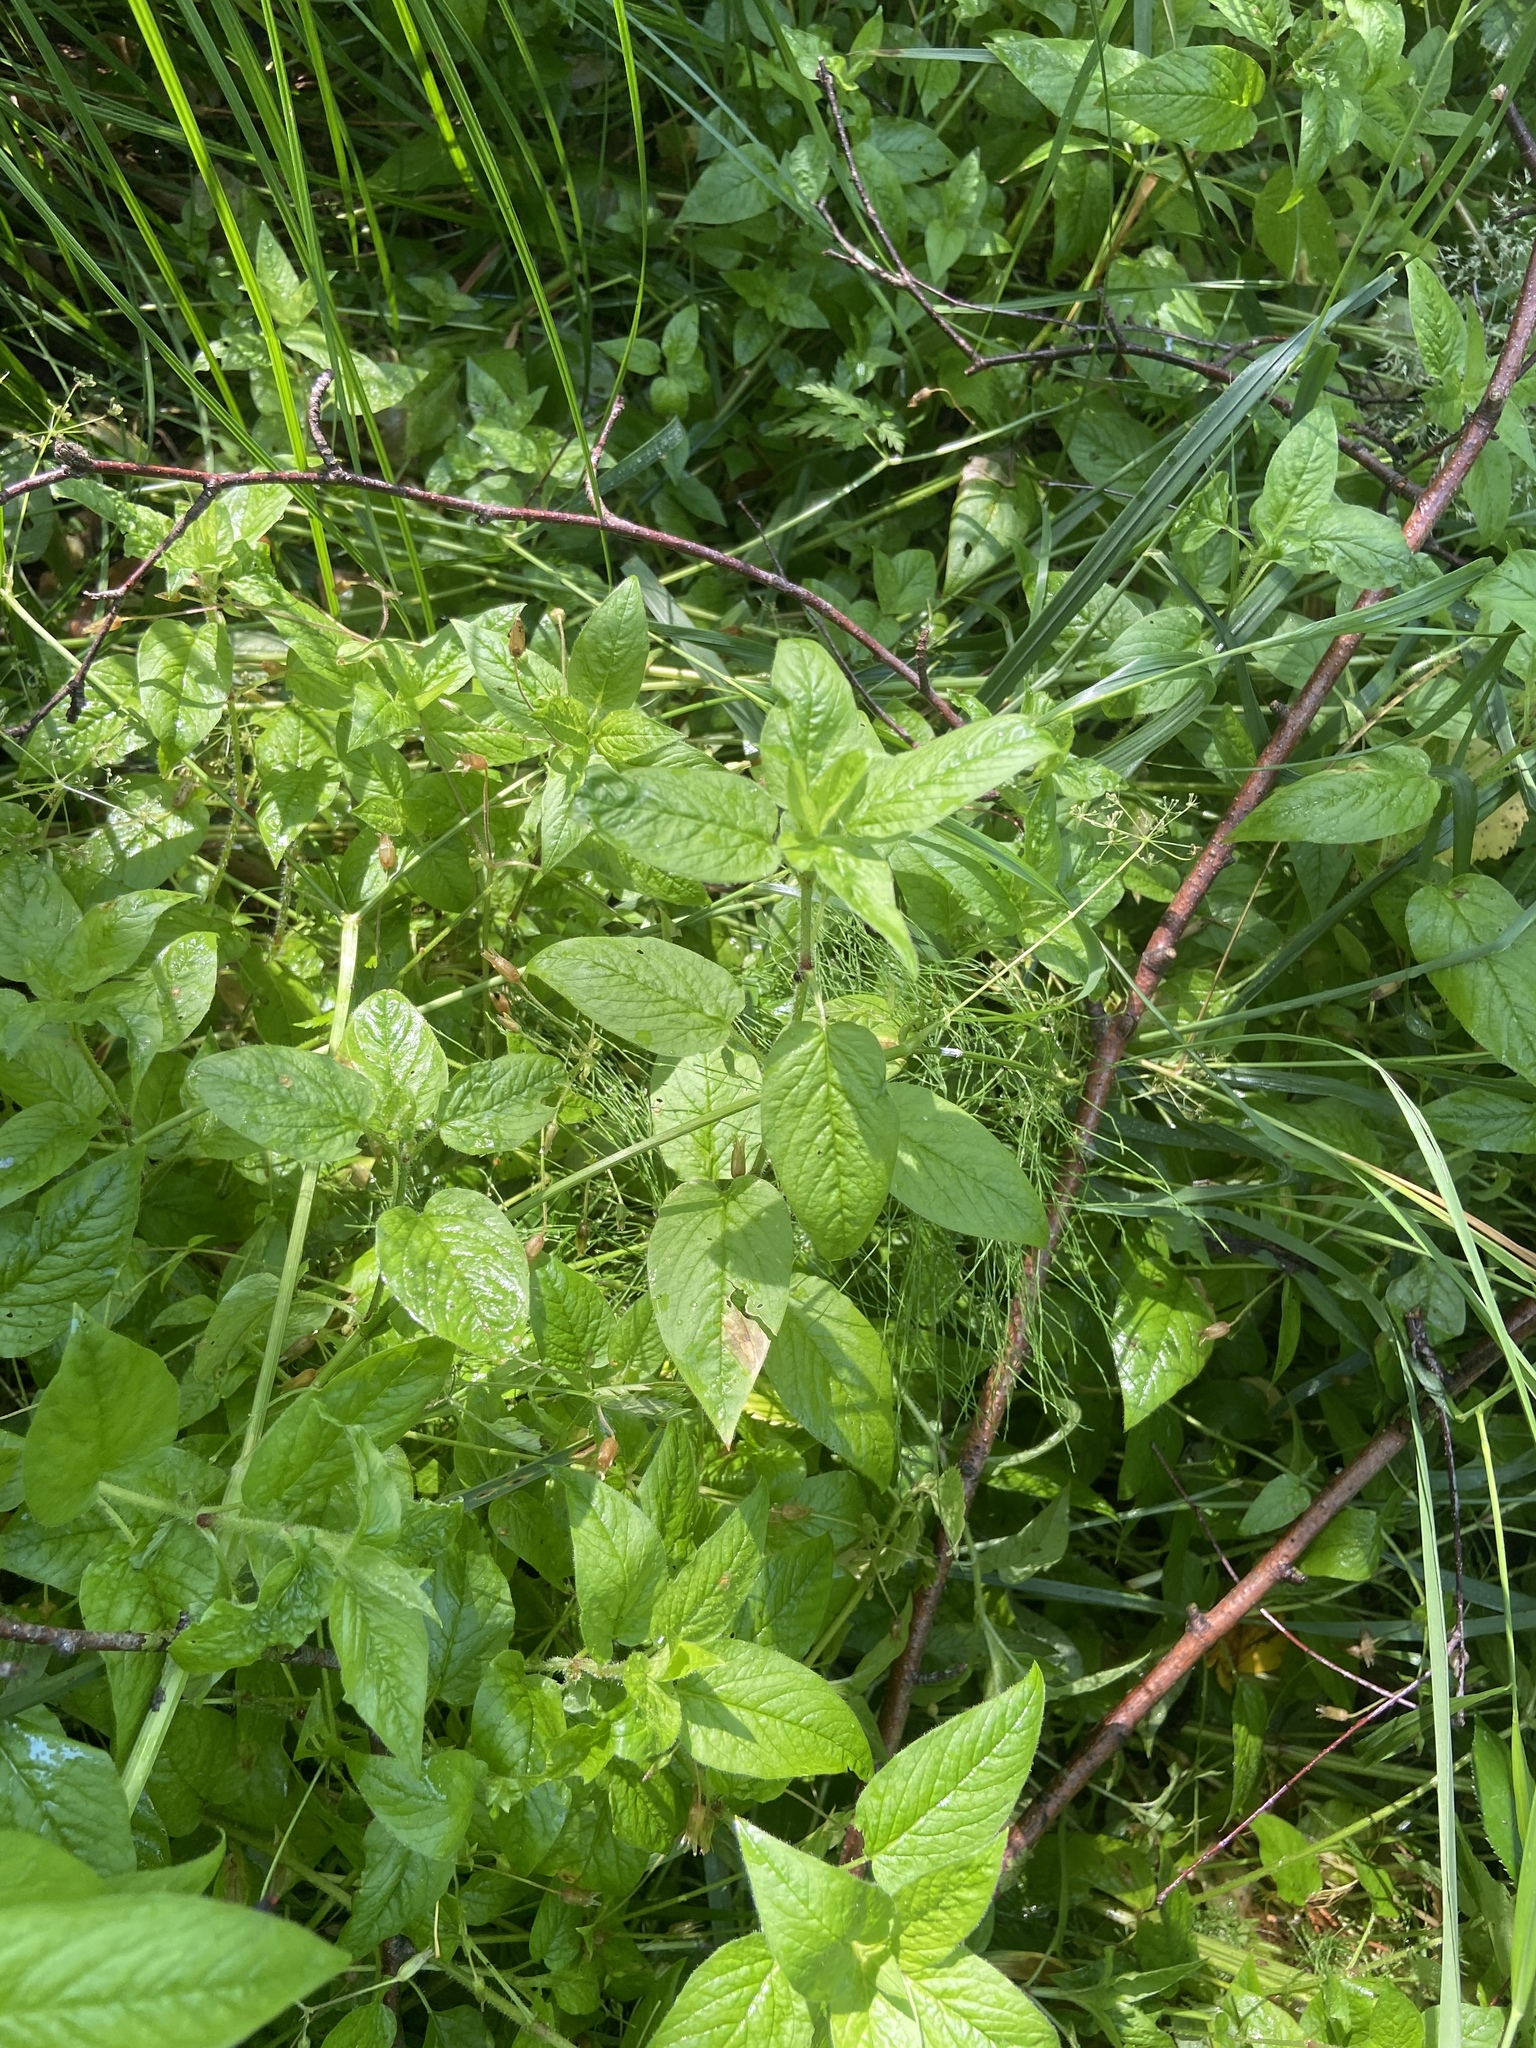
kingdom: Plantae
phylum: Tracheophyta
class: Magnoliopsida
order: Caryophyllales
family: Caryophyllaceae
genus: Stellaria
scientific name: Stellaria nemorum
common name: Wood stitchwort
